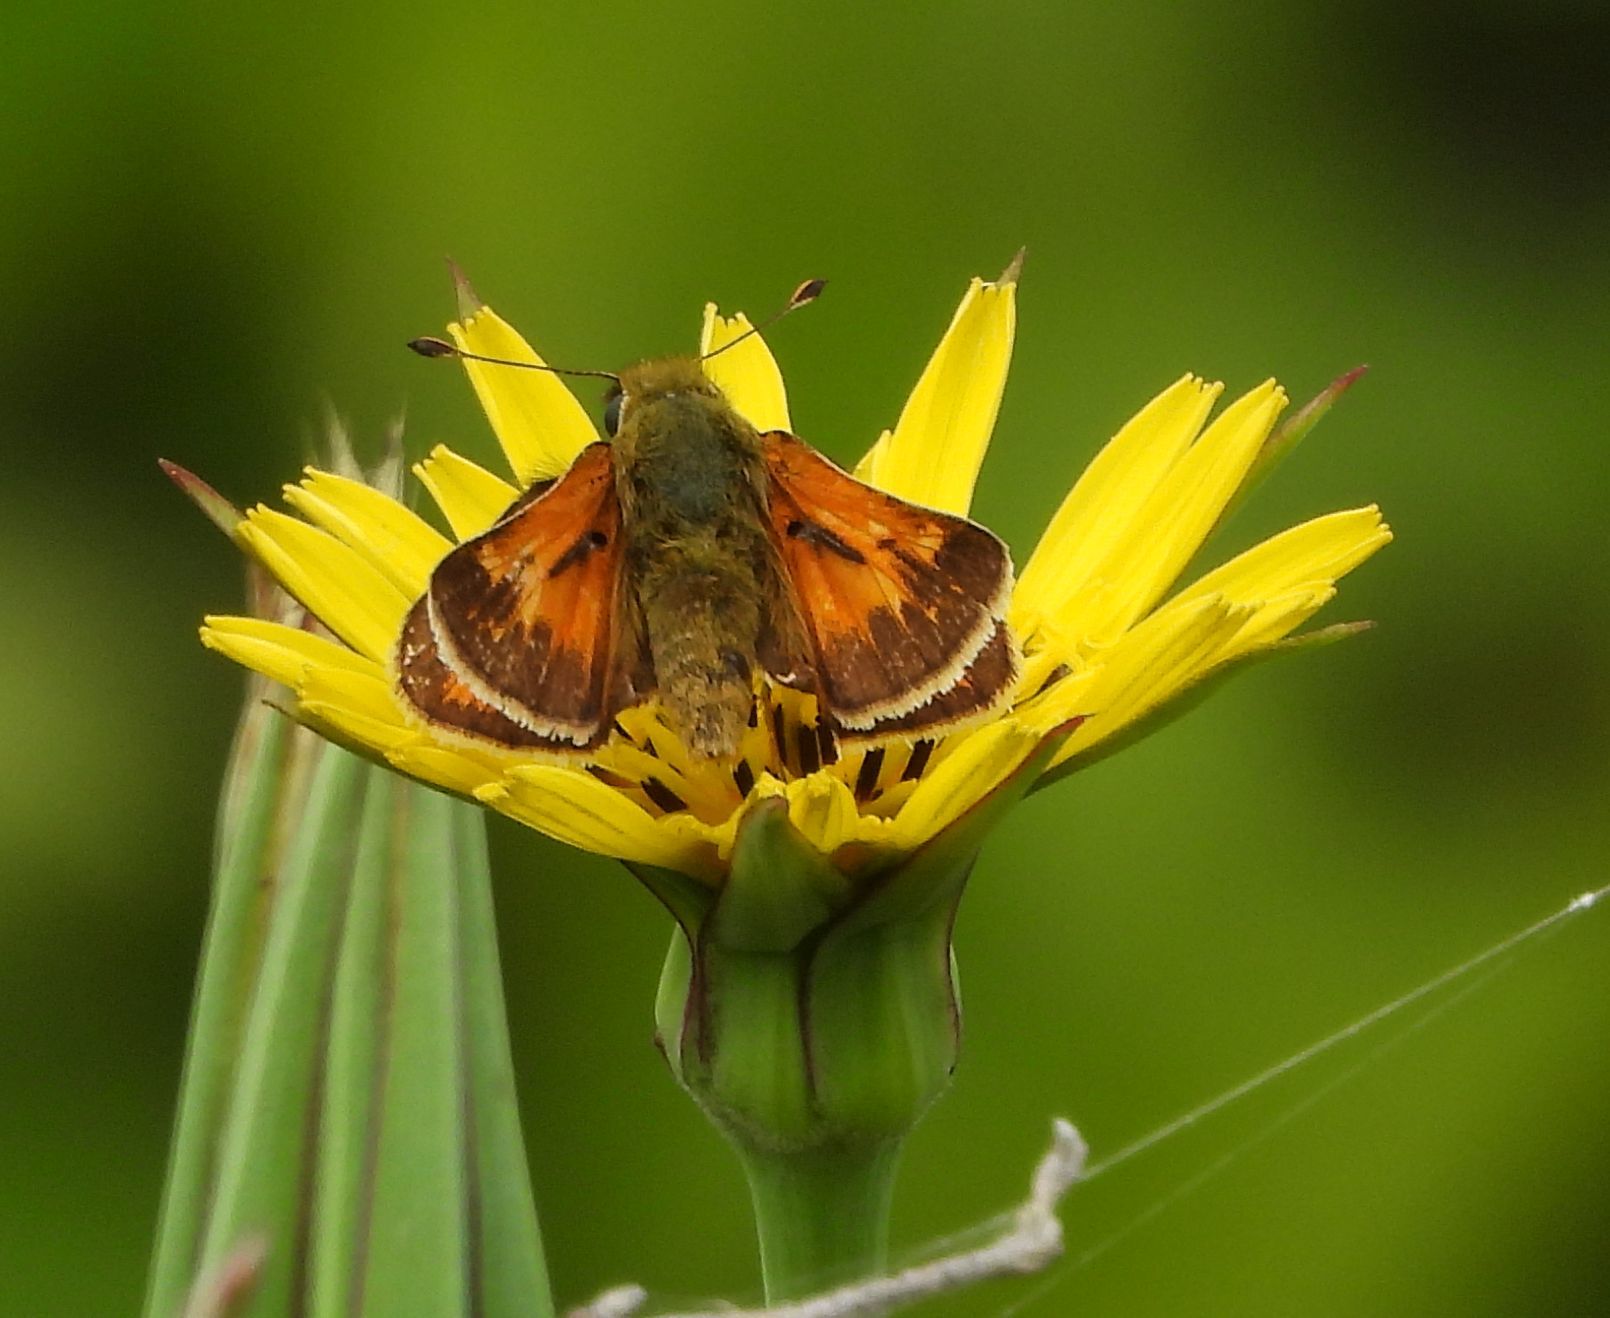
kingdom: Animalia
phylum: Arthropoda
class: Insecta
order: Lepidoptera
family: Hesperiidae
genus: Hesperia
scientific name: Hesperia sassacus
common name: Indian skipper
